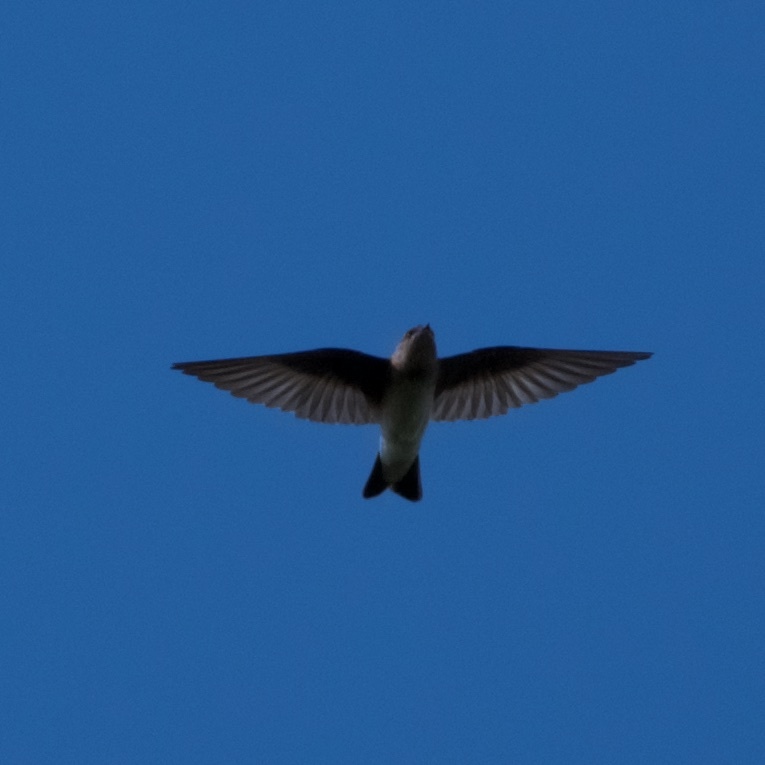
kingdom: Animalia
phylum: Chordata
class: Aves
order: Passeriformes
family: Hirundinidae
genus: Stelgidopteryx
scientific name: Stelgidopteryx serripennis
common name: Northern rough-winged swallow
